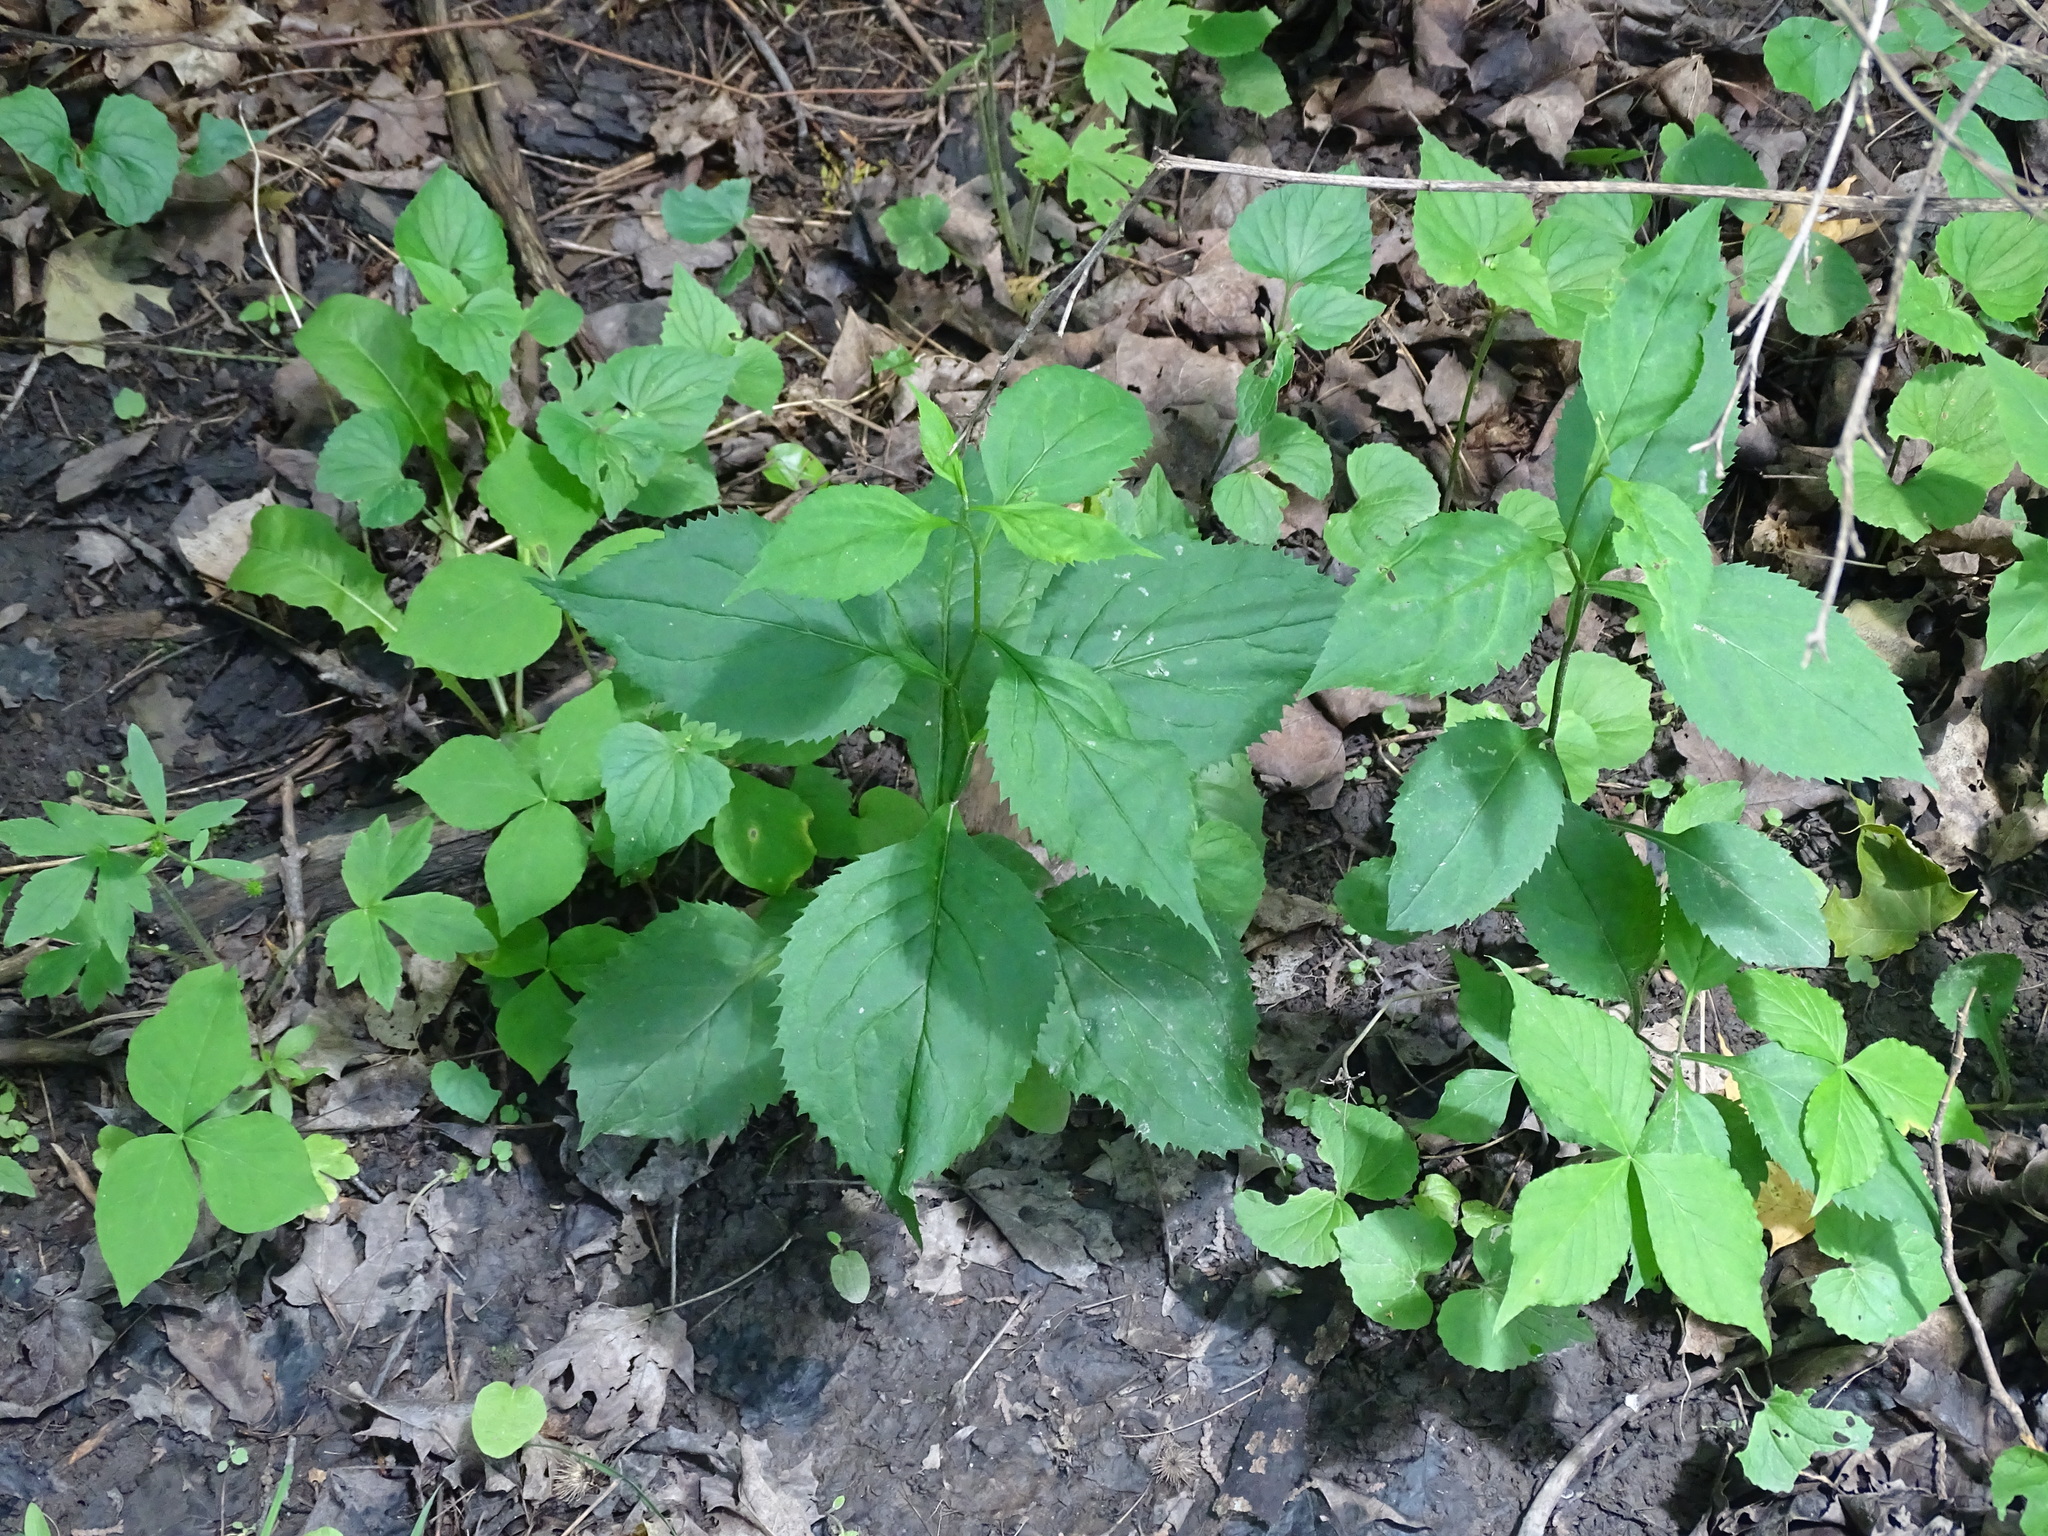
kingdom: Plantae
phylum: Tracheophyta
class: Magnoliopsida
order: Asterales
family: Asteraceae
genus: Solidago
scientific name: Solidago flexicaulis
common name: Zig-zag goldenrod
